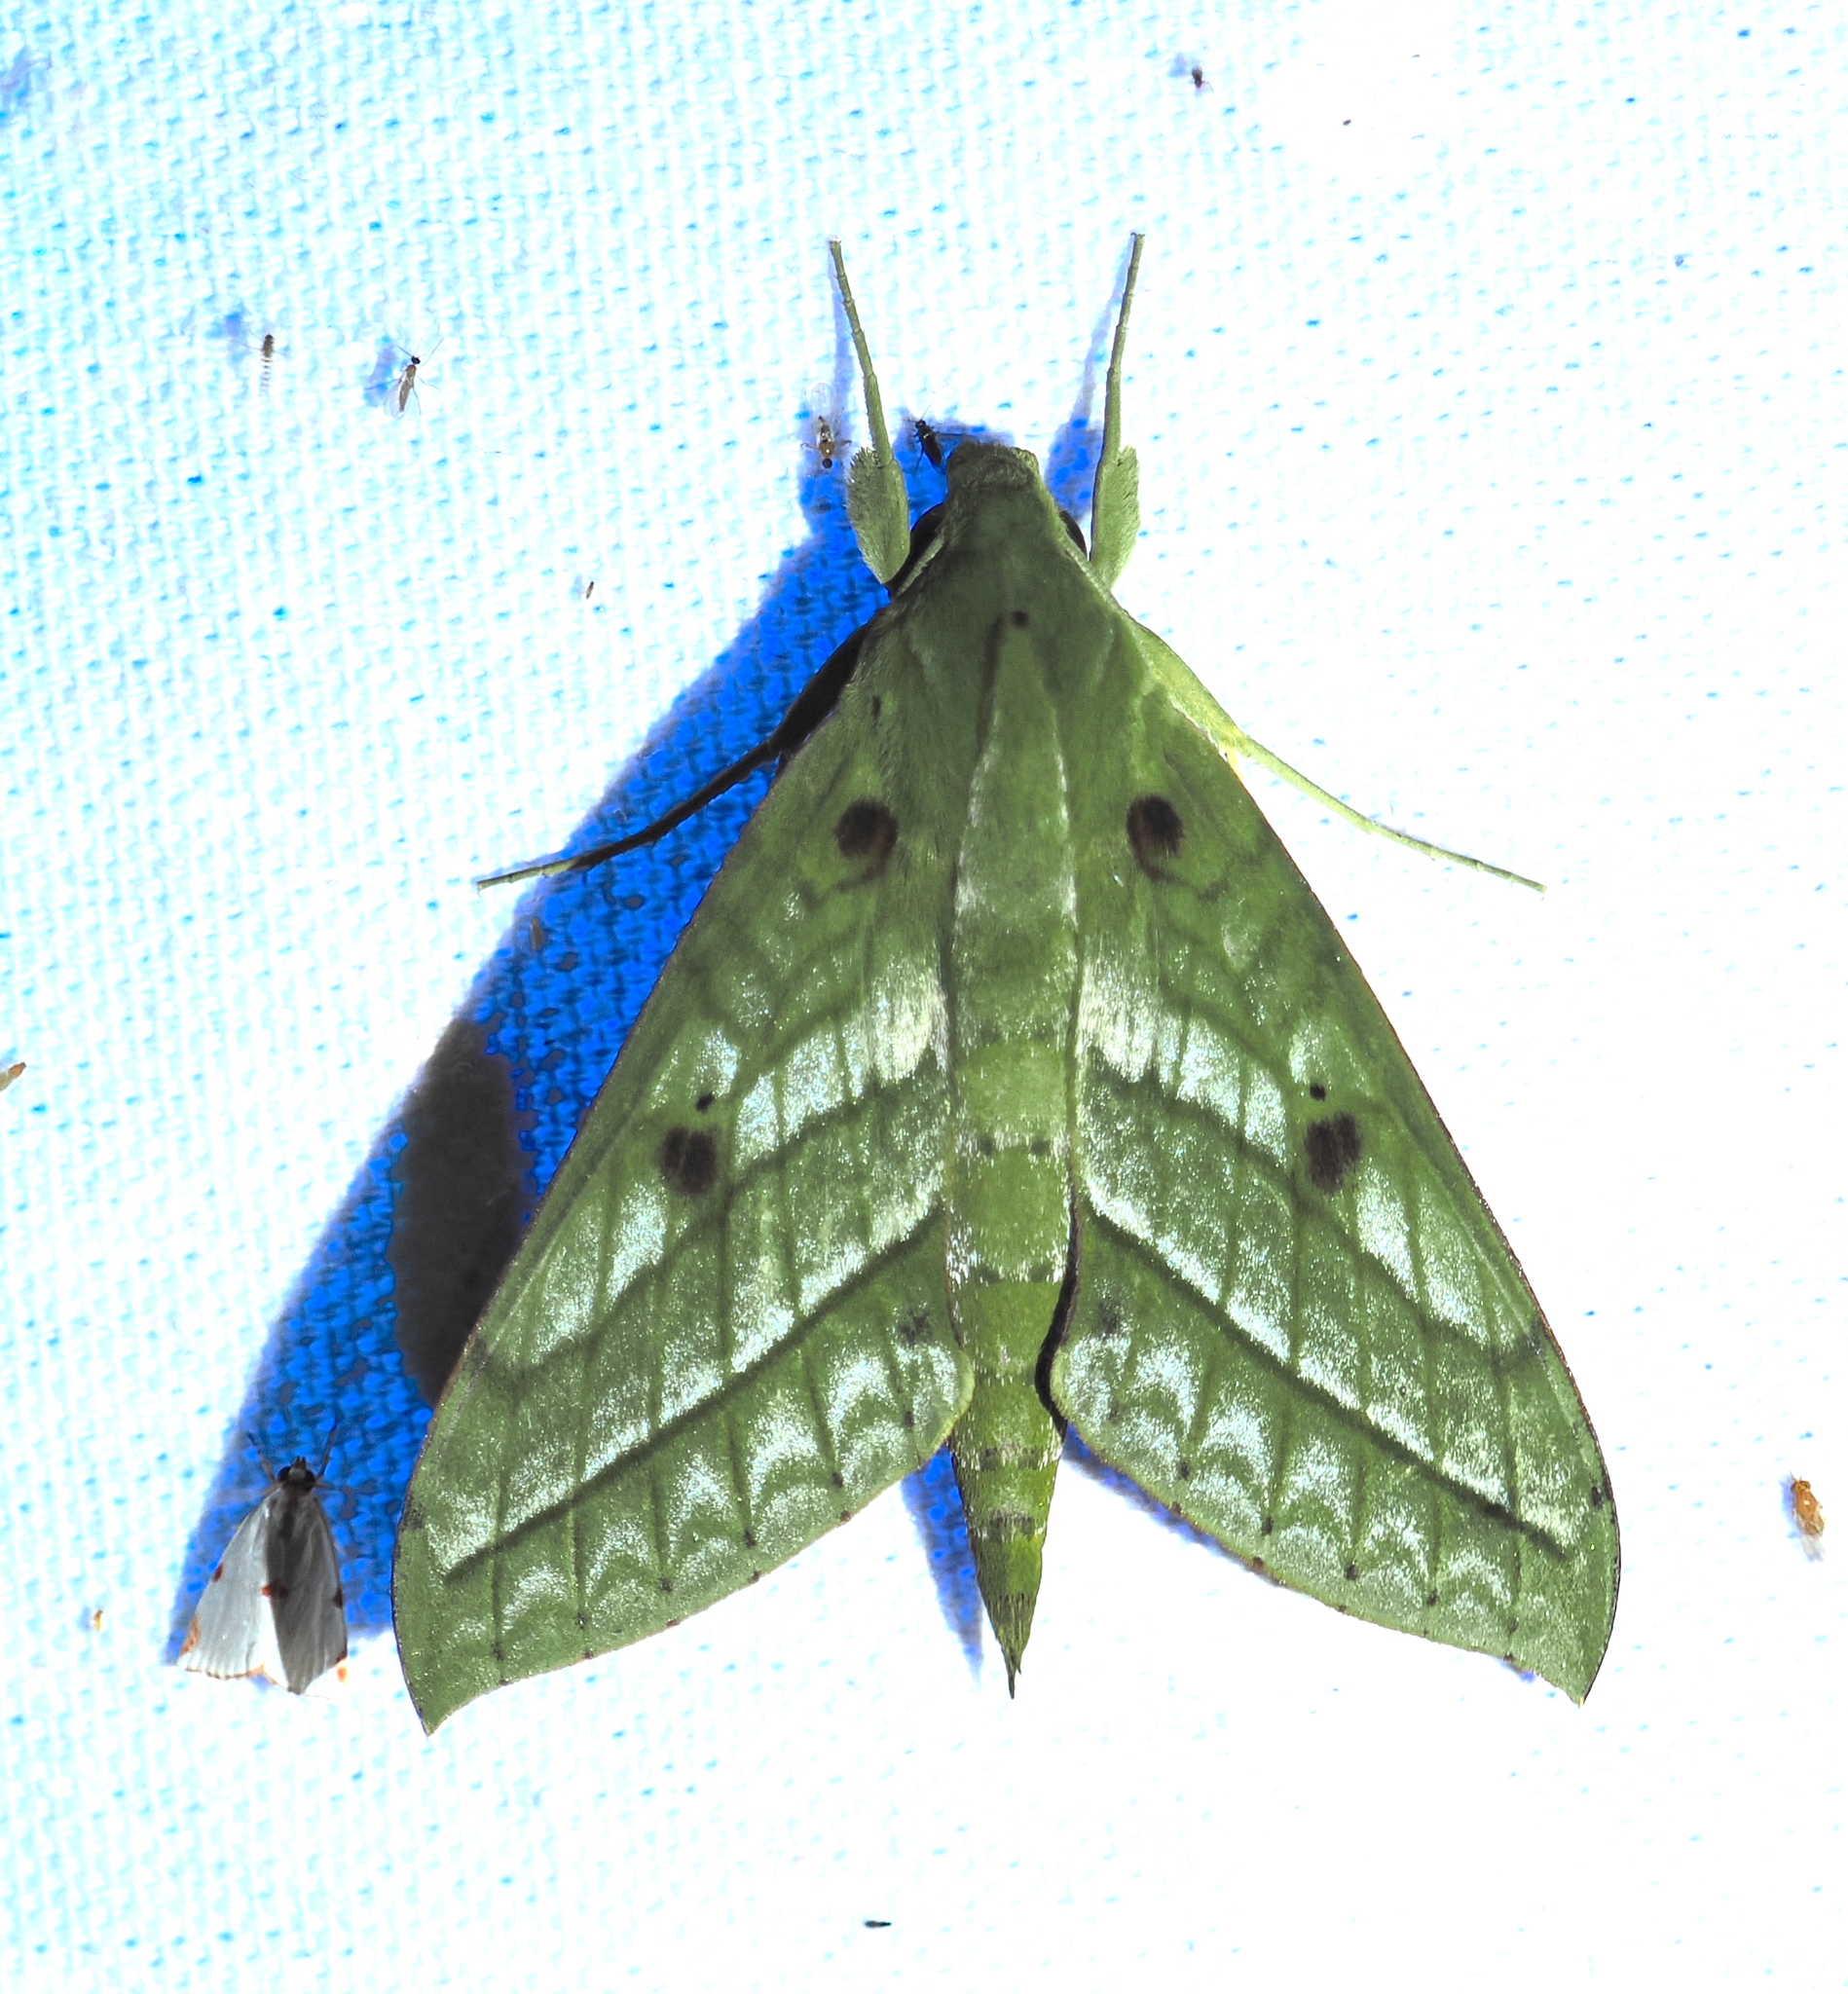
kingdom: Animalia
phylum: Arthropoda
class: Insecta
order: Lepidoptera
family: Sphingidae
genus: Xylophanes
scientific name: Xylophanes mirabilis
